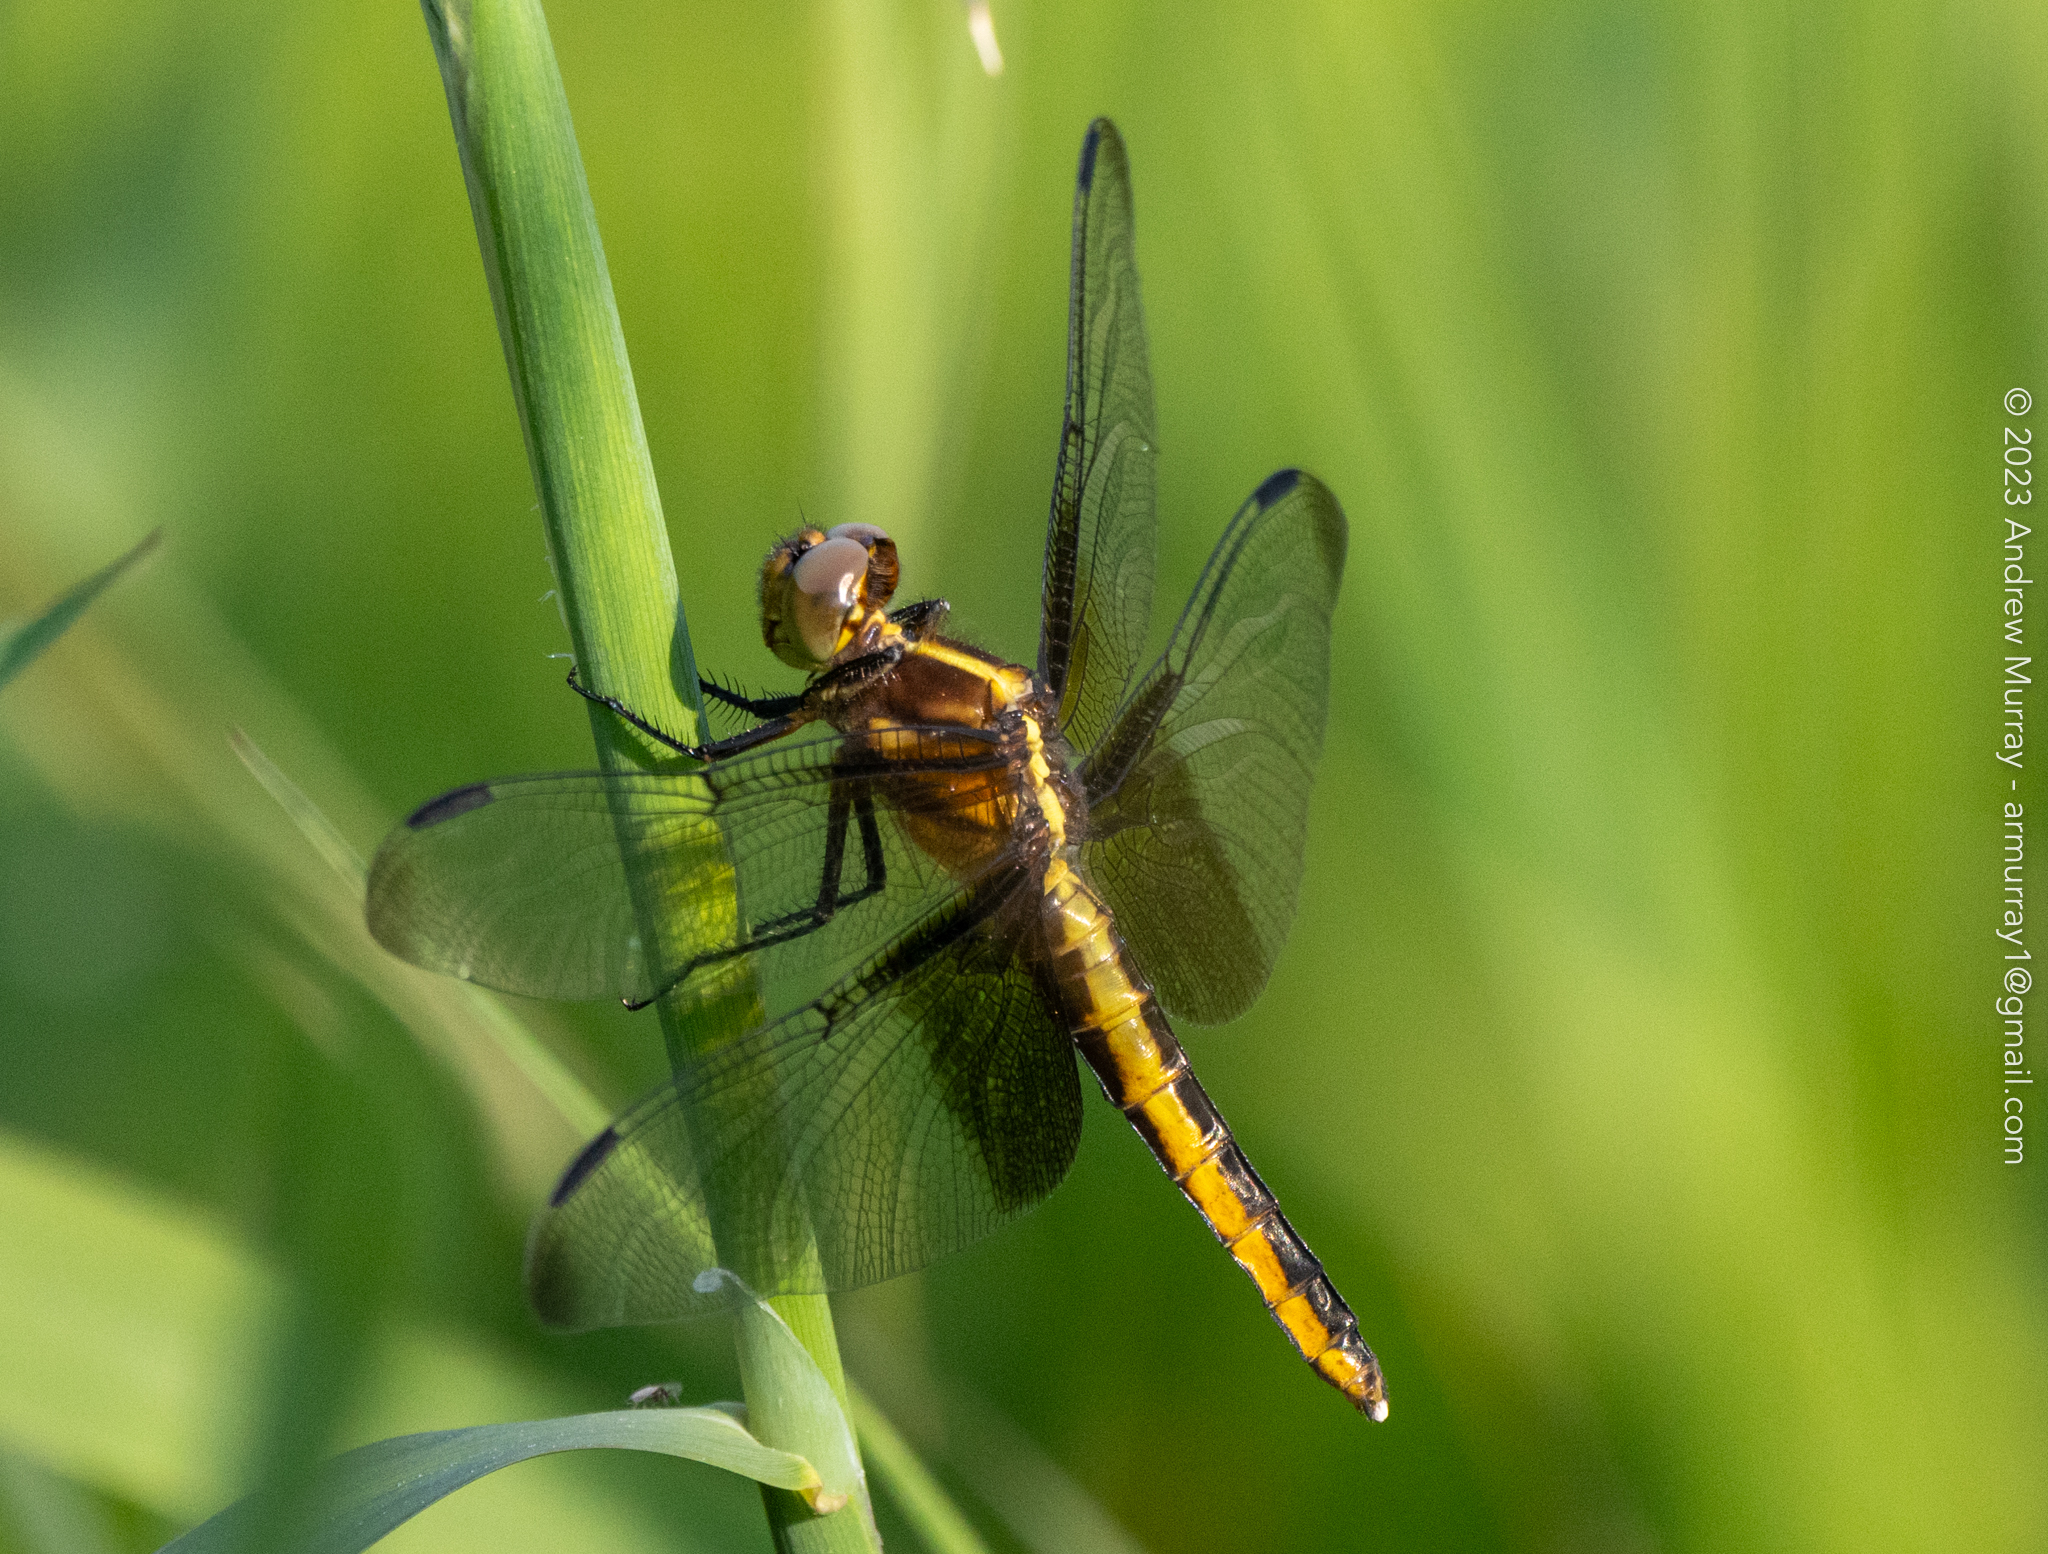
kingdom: Animalia
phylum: Arthropoda
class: Insecta
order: Odonata
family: Libellulidae
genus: Libellula
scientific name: Libellula luctuosa
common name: Widow skimmer
